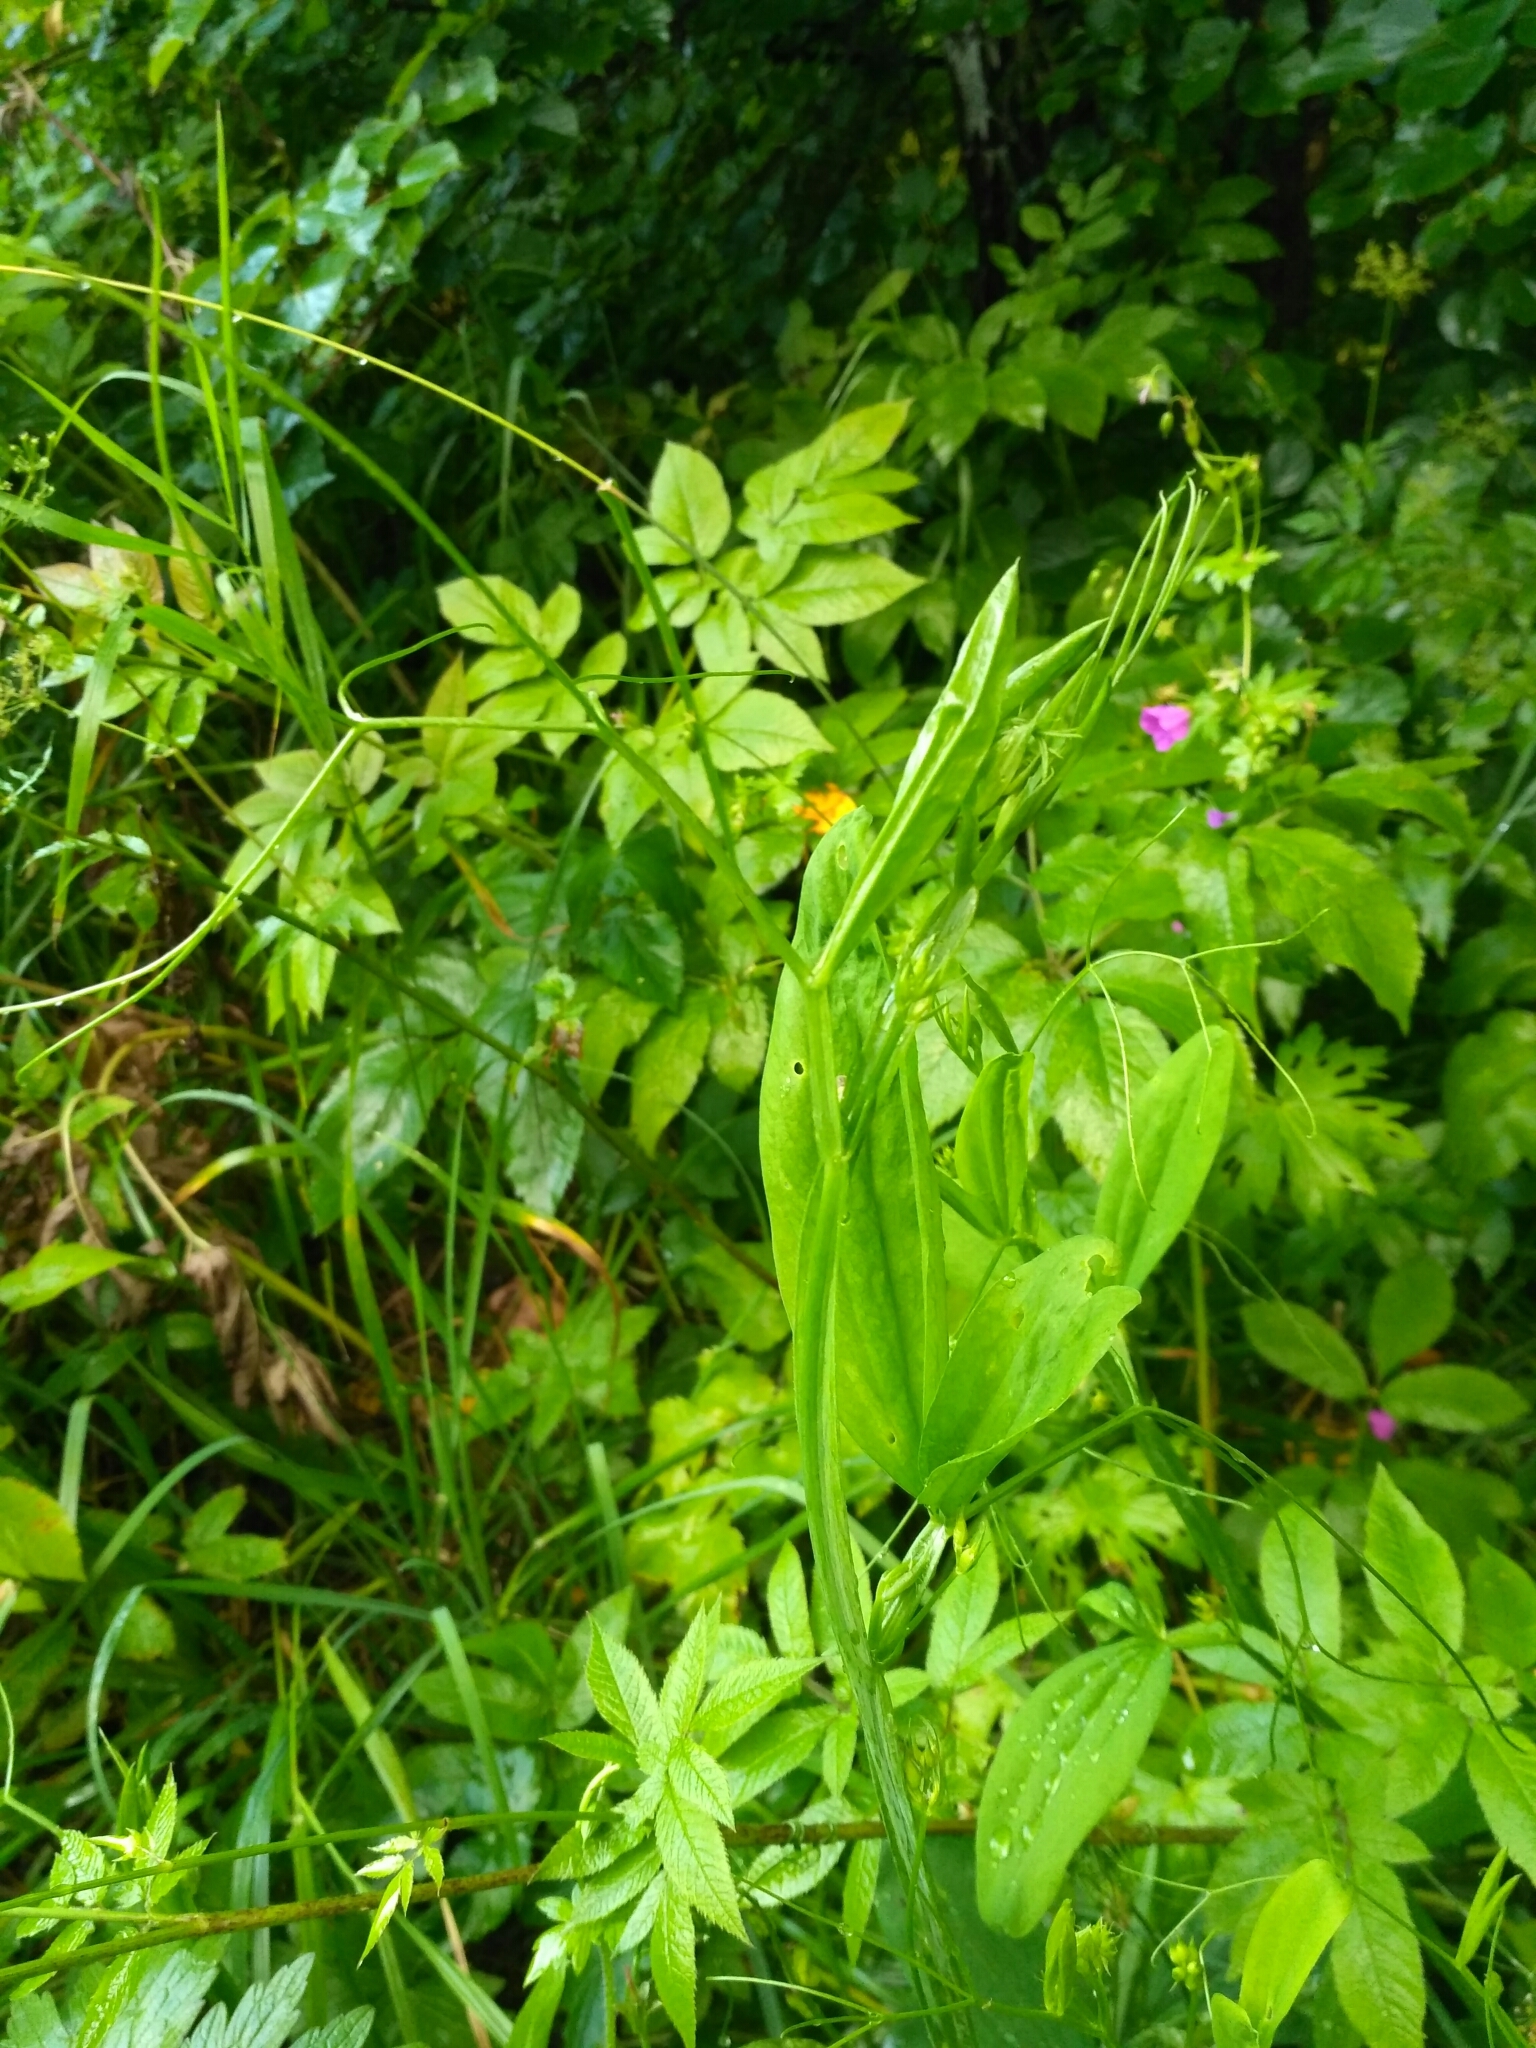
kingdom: Plantae
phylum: Tracheophyta
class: Magnoliopsida
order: Fabales
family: Fabaceae
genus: Lathyrus
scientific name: Lathyrus sylvestris
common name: Flat pea
